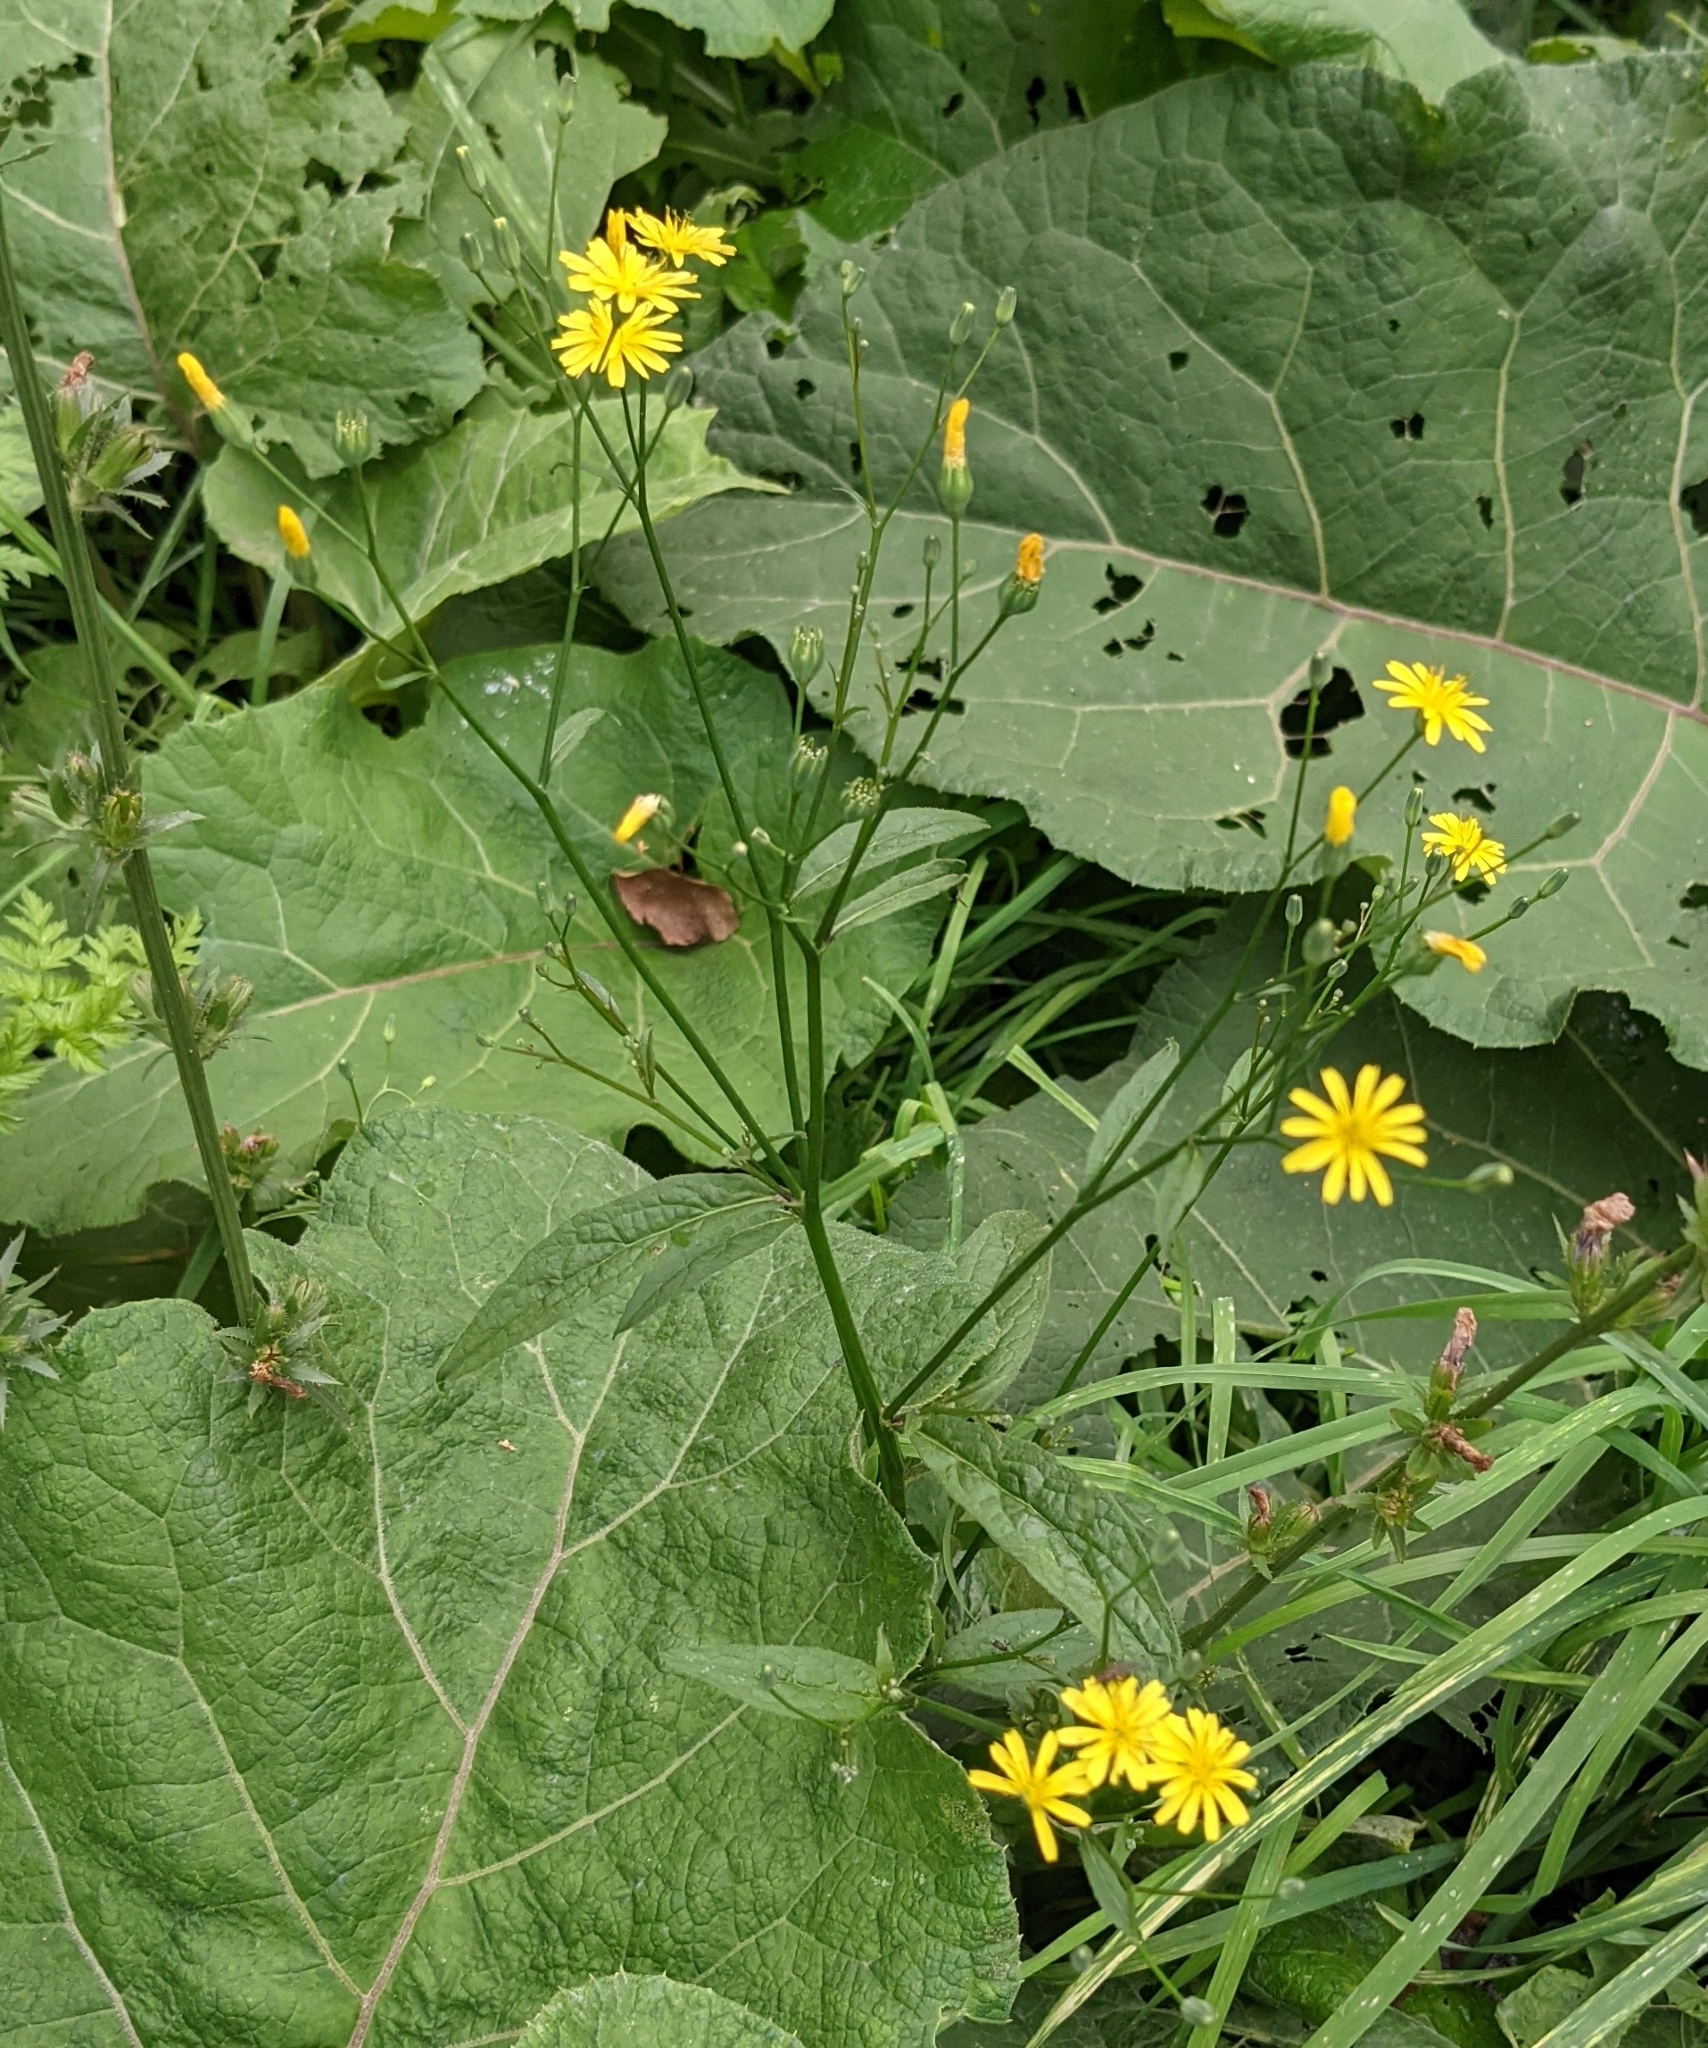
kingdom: Plantae
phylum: Tracheophyta
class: Magnoliopsida
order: Asterales
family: Asteraceae
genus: Lapsana
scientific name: Lapsana communis
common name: Nipplewort
